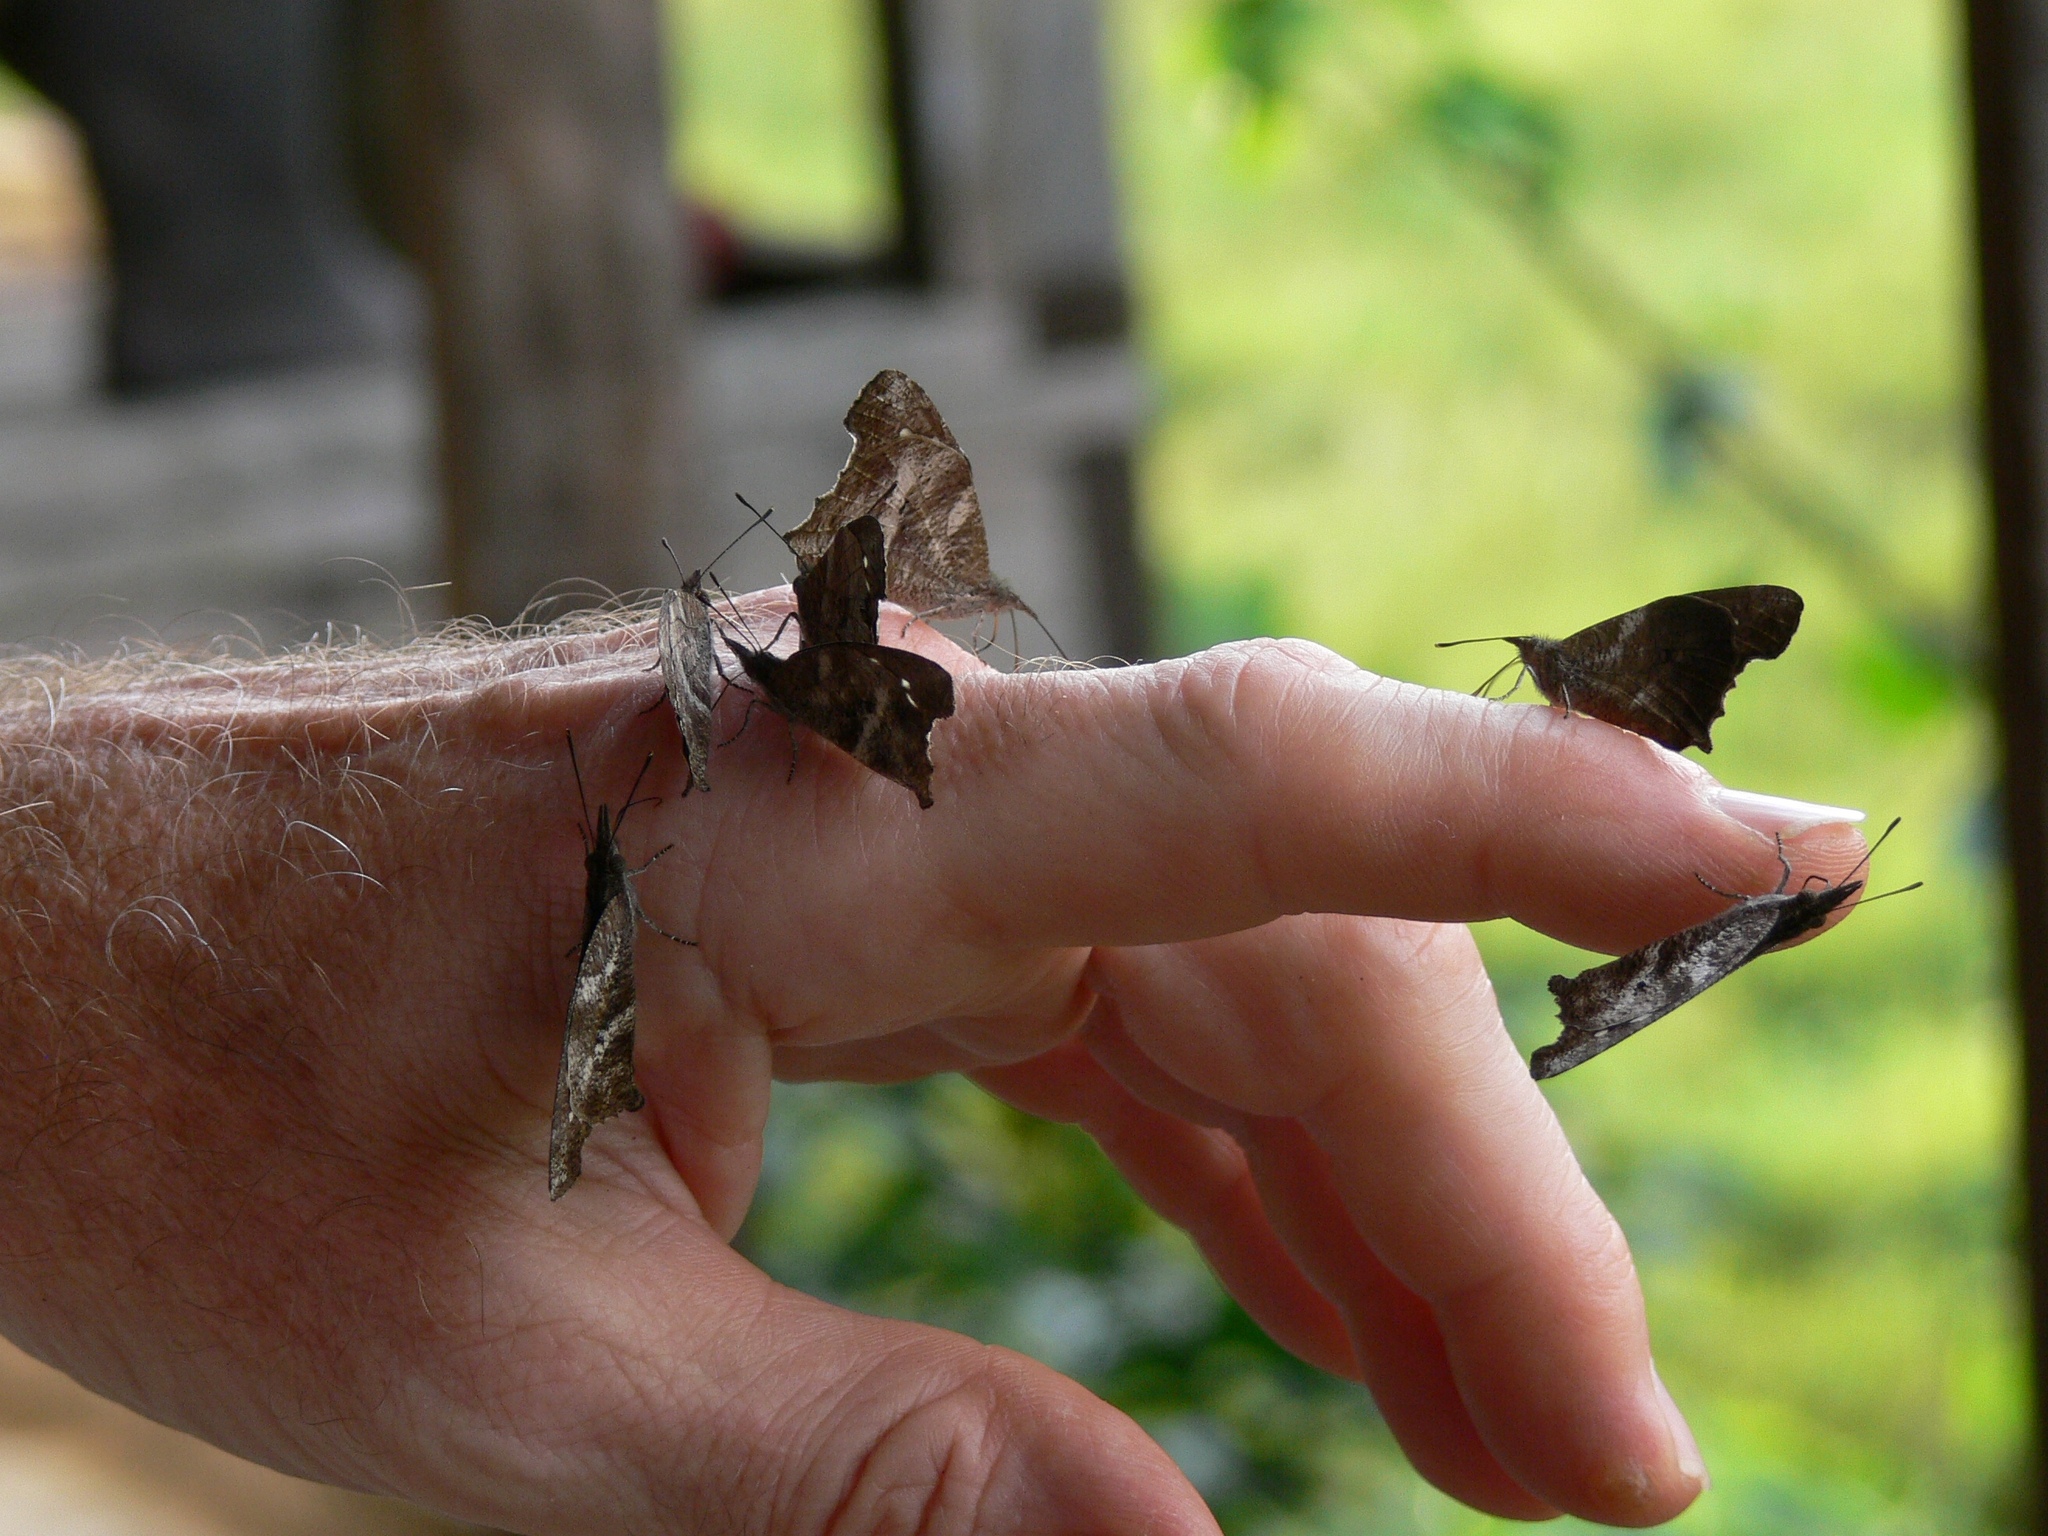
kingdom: Animalia
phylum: Arthropoda
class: Insecta
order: Lepidoptera
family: Nymphalidae
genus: Libythea
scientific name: Libythea labdaca
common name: Northern african snout
